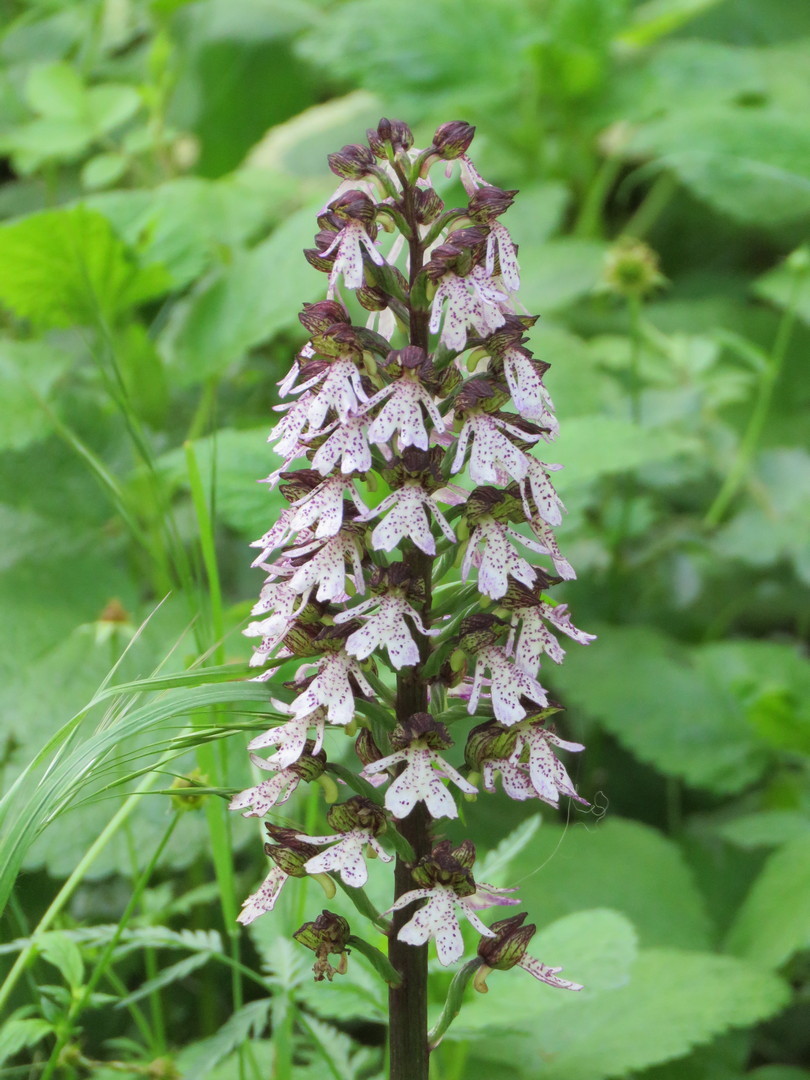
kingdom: Plantae
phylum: Tracheophyta
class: Liliopsida
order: Asparagales
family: Orchidaceae
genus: Orchis
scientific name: Orchis purpurea
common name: Lady orchid
